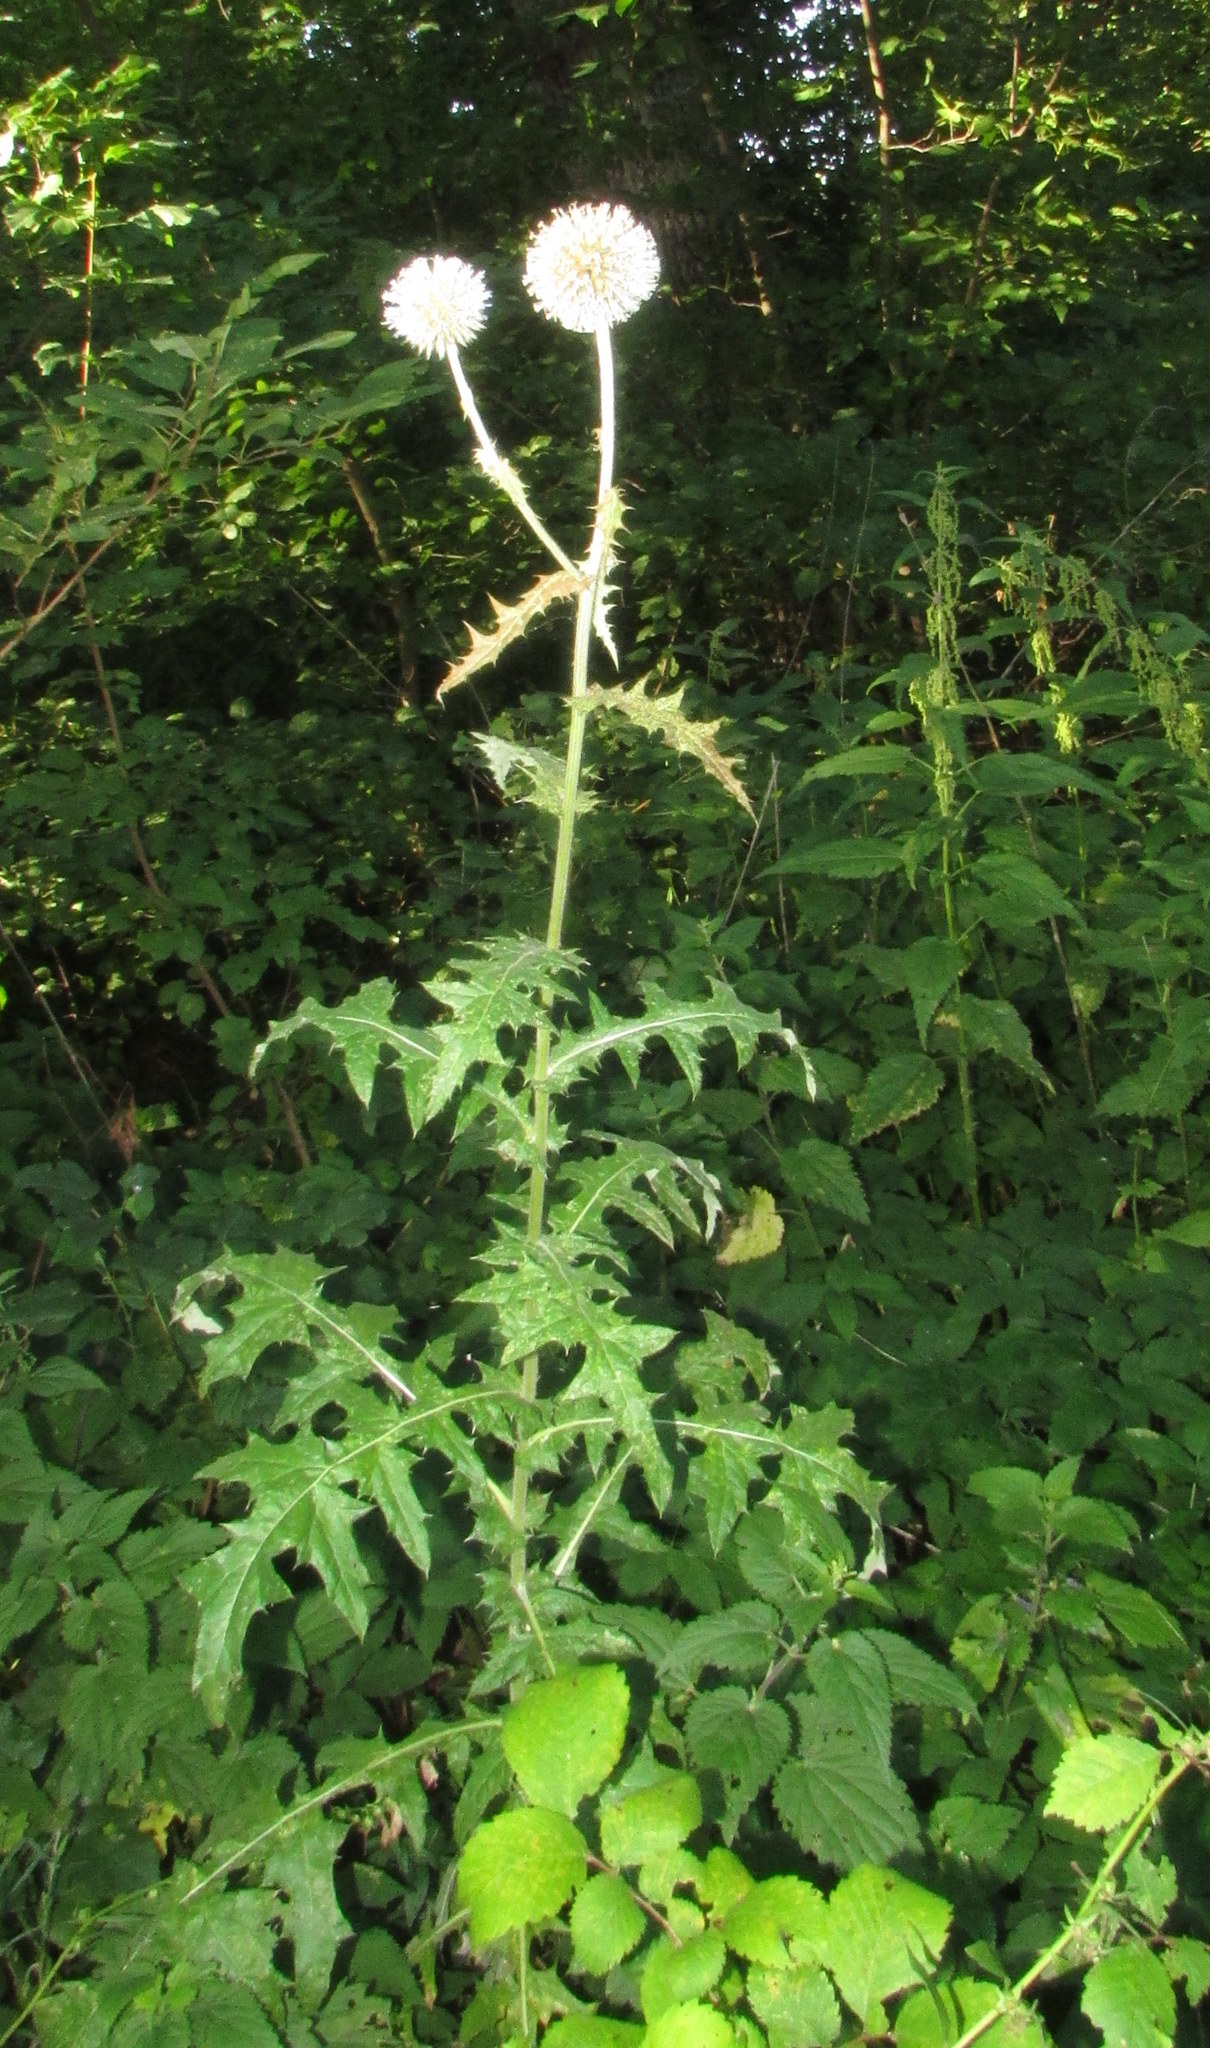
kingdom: Plantae
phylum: Tracheophyta
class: Magnoliopsida
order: Asterales
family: Asteraceae
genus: Echinops
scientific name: Echinops sphaerocephalus
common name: Glandular globe-thistle
